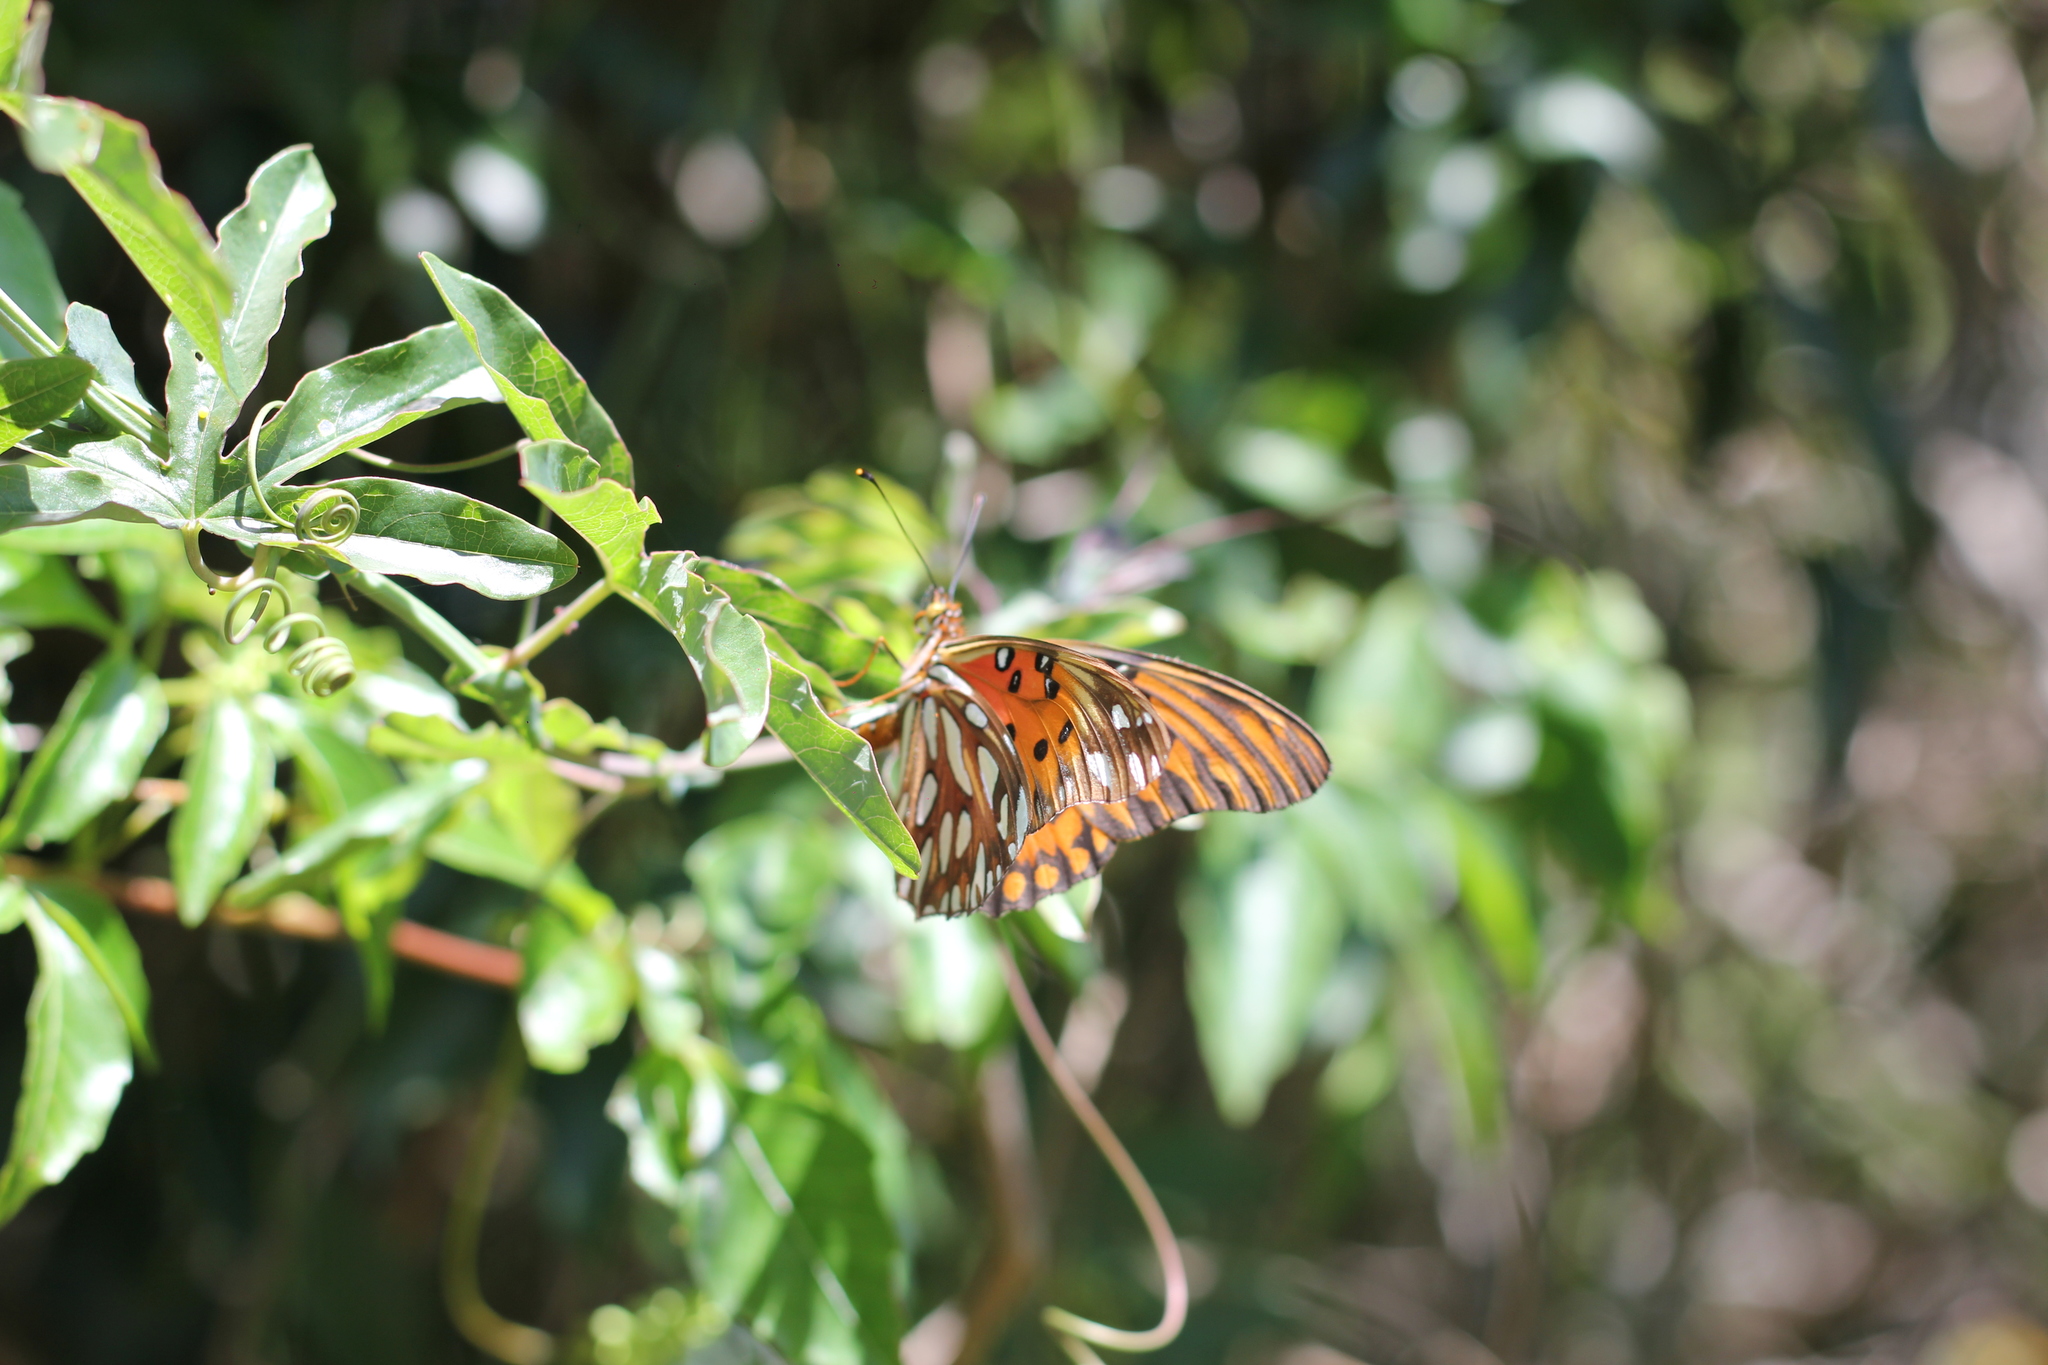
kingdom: Animalia
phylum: Arthropoda
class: Insecta
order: Lepidoptera
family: Nymphalidae
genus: Dione
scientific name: Dione vanillae
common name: Gulf fritillary
